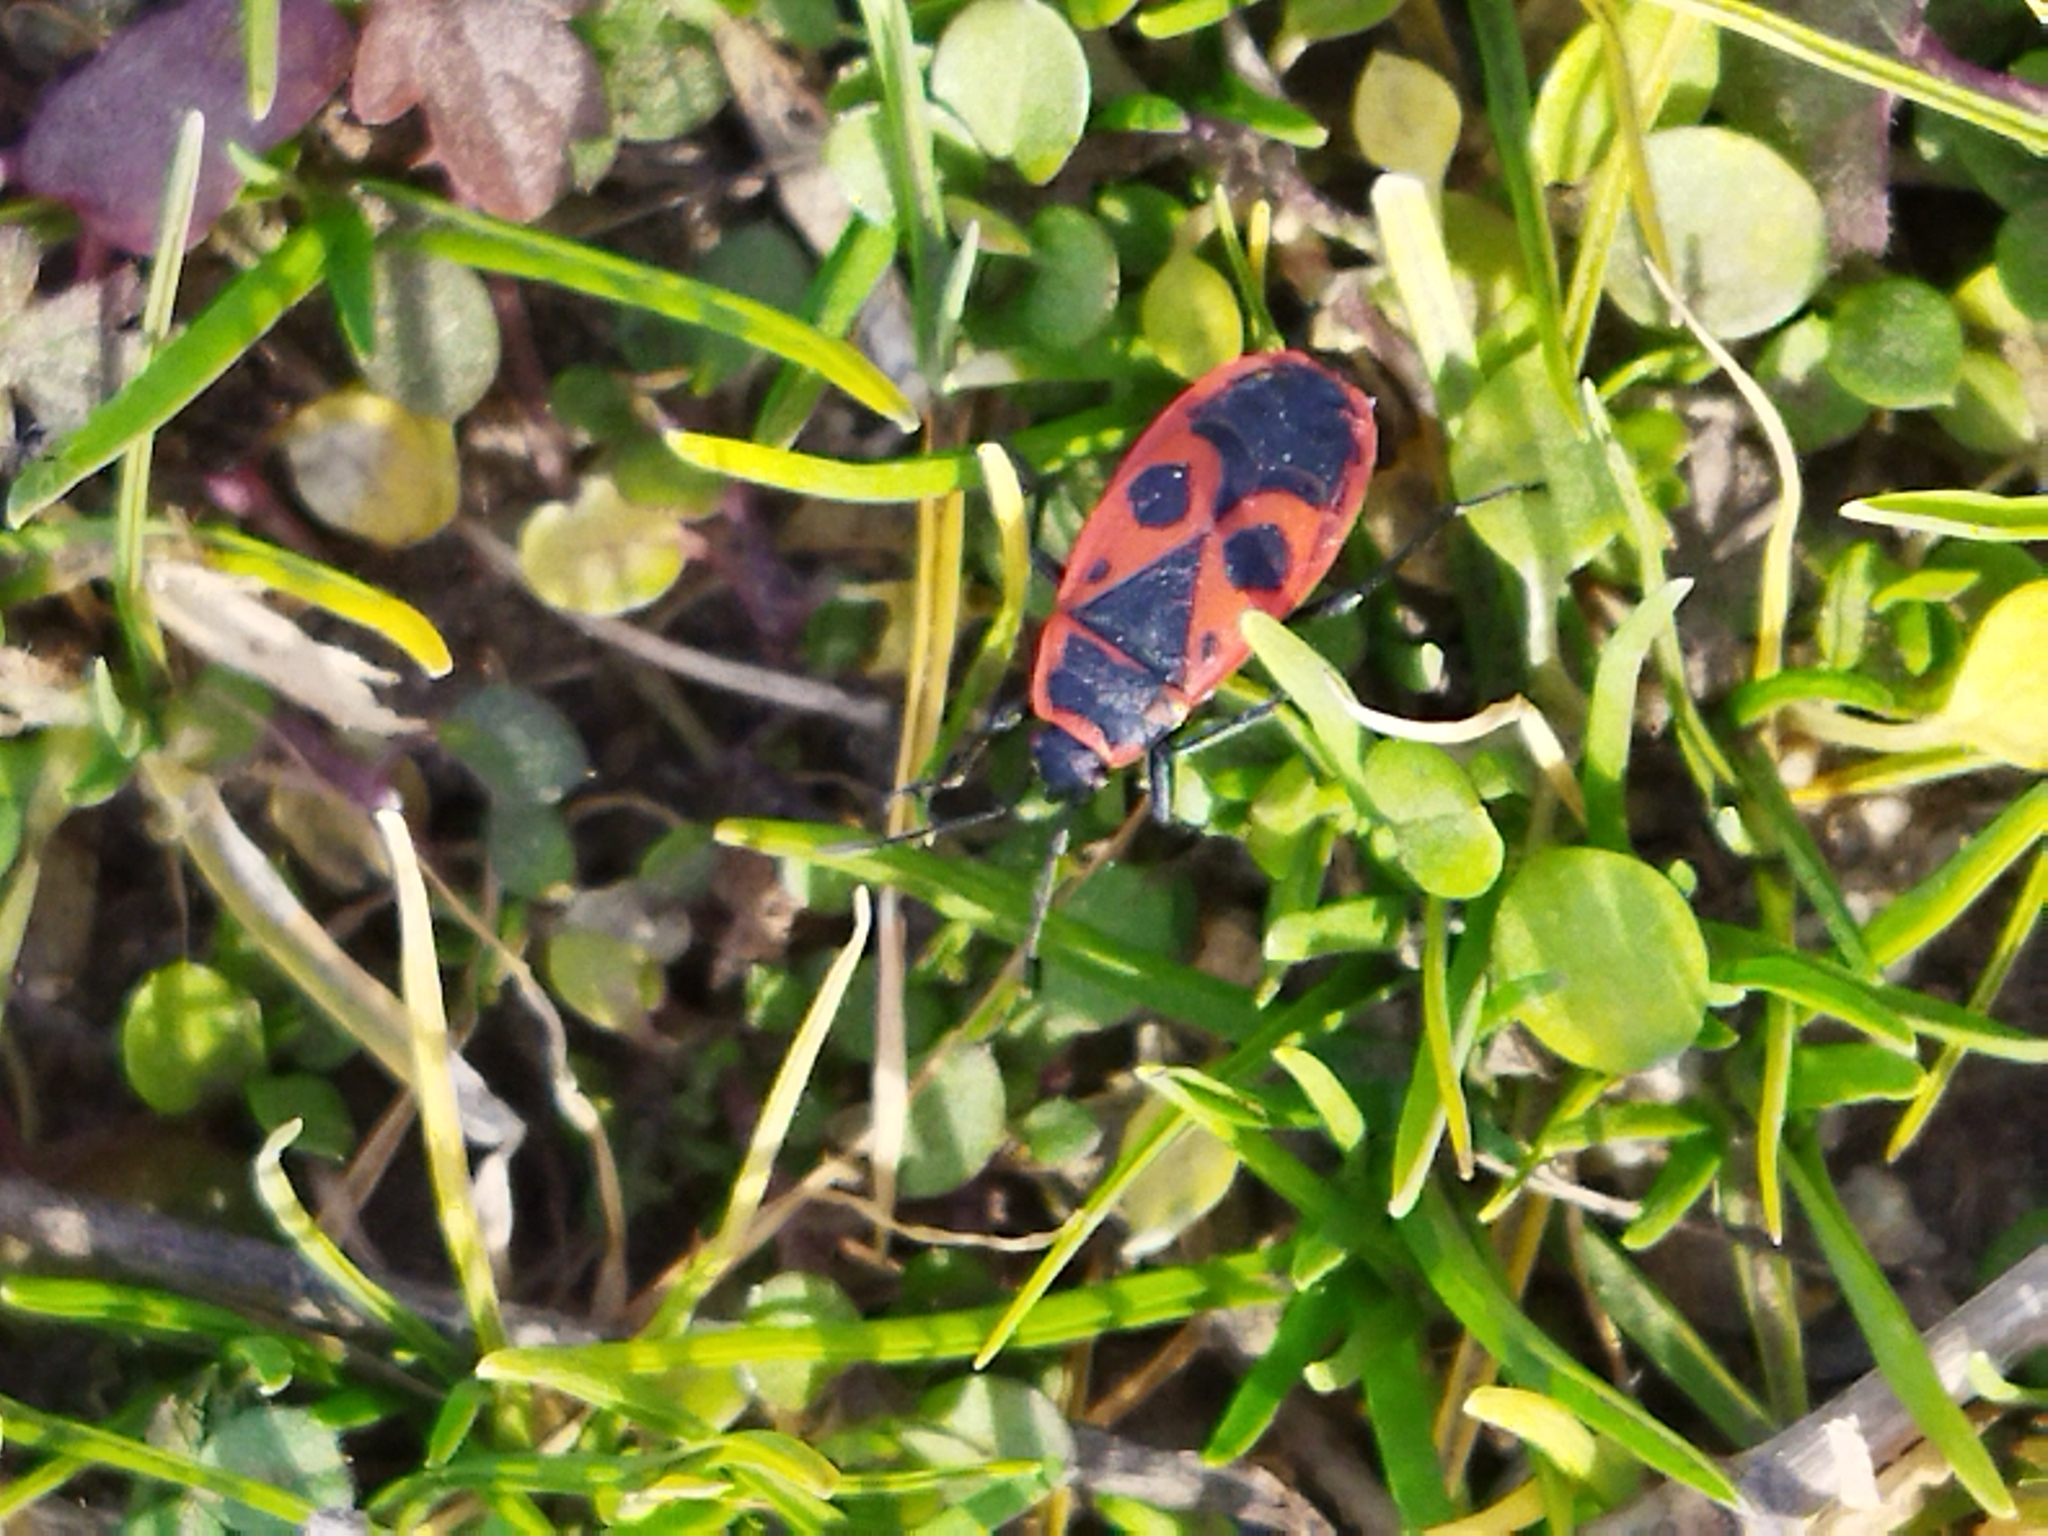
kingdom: Animalia
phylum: Arthropoda
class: Insecta
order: Hemiptera
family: Pyrrhocoridae
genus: Pyrrhocoris
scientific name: Pyrrhocoris apterus
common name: Firebug
